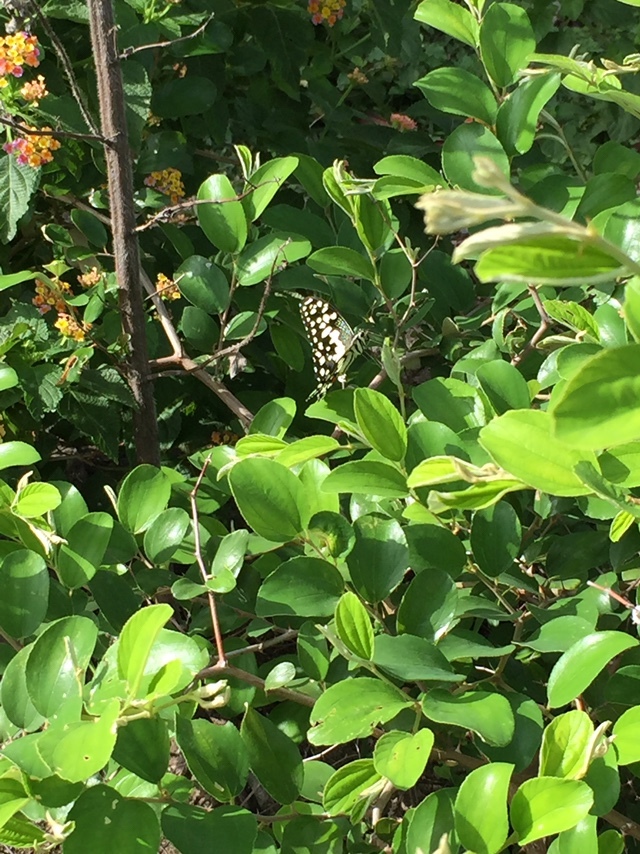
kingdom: Animalia
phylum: Arthropoda
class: Insecta
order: Lepidoptera
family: Papilionidae
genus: Papilio
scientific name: Papilio demoleus
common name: Lime butterfly
